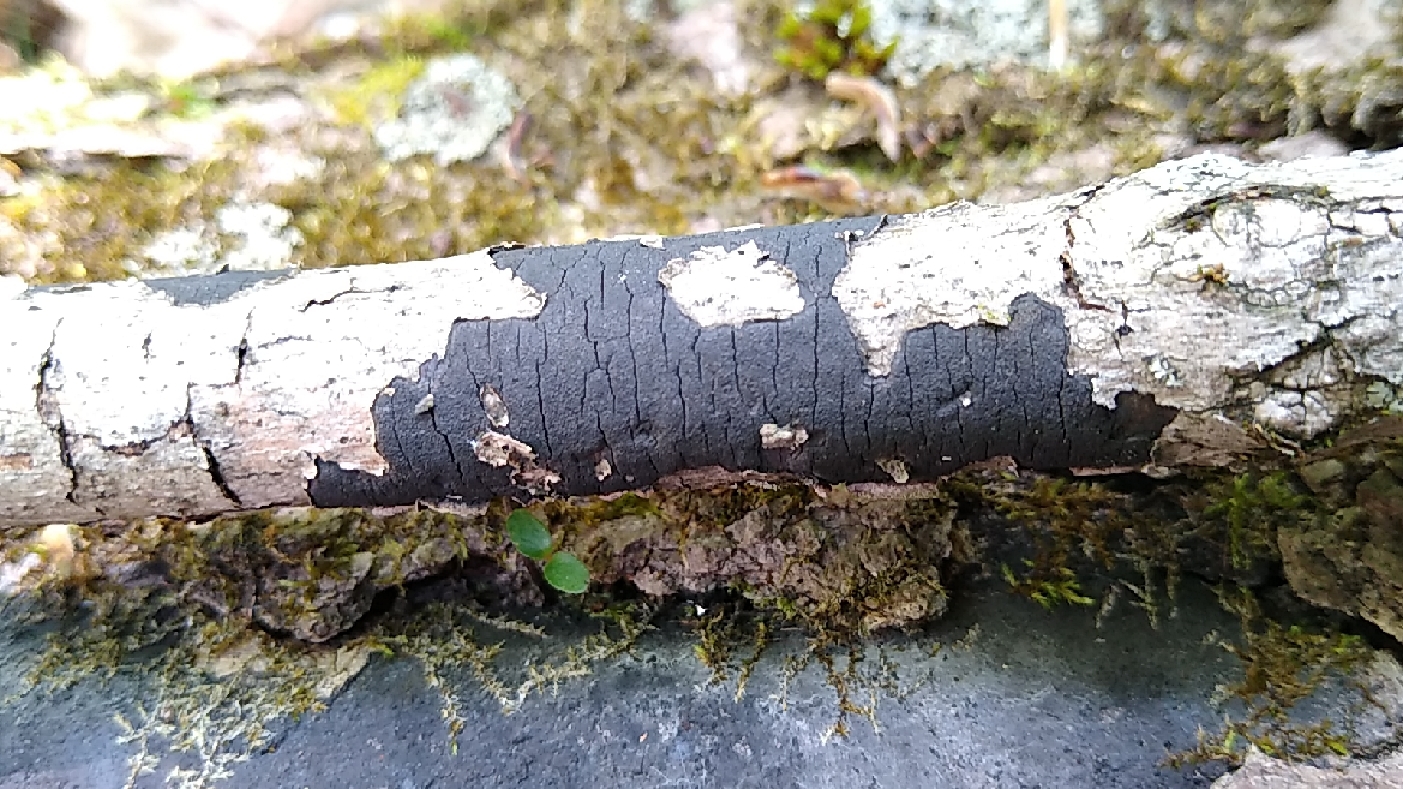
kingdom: Fungi
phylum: Ascomycota
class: Sordariomycetes
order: Xylariales
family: Graphostromataceae
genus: Graphostroma
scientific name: Graphostroma platystomum
